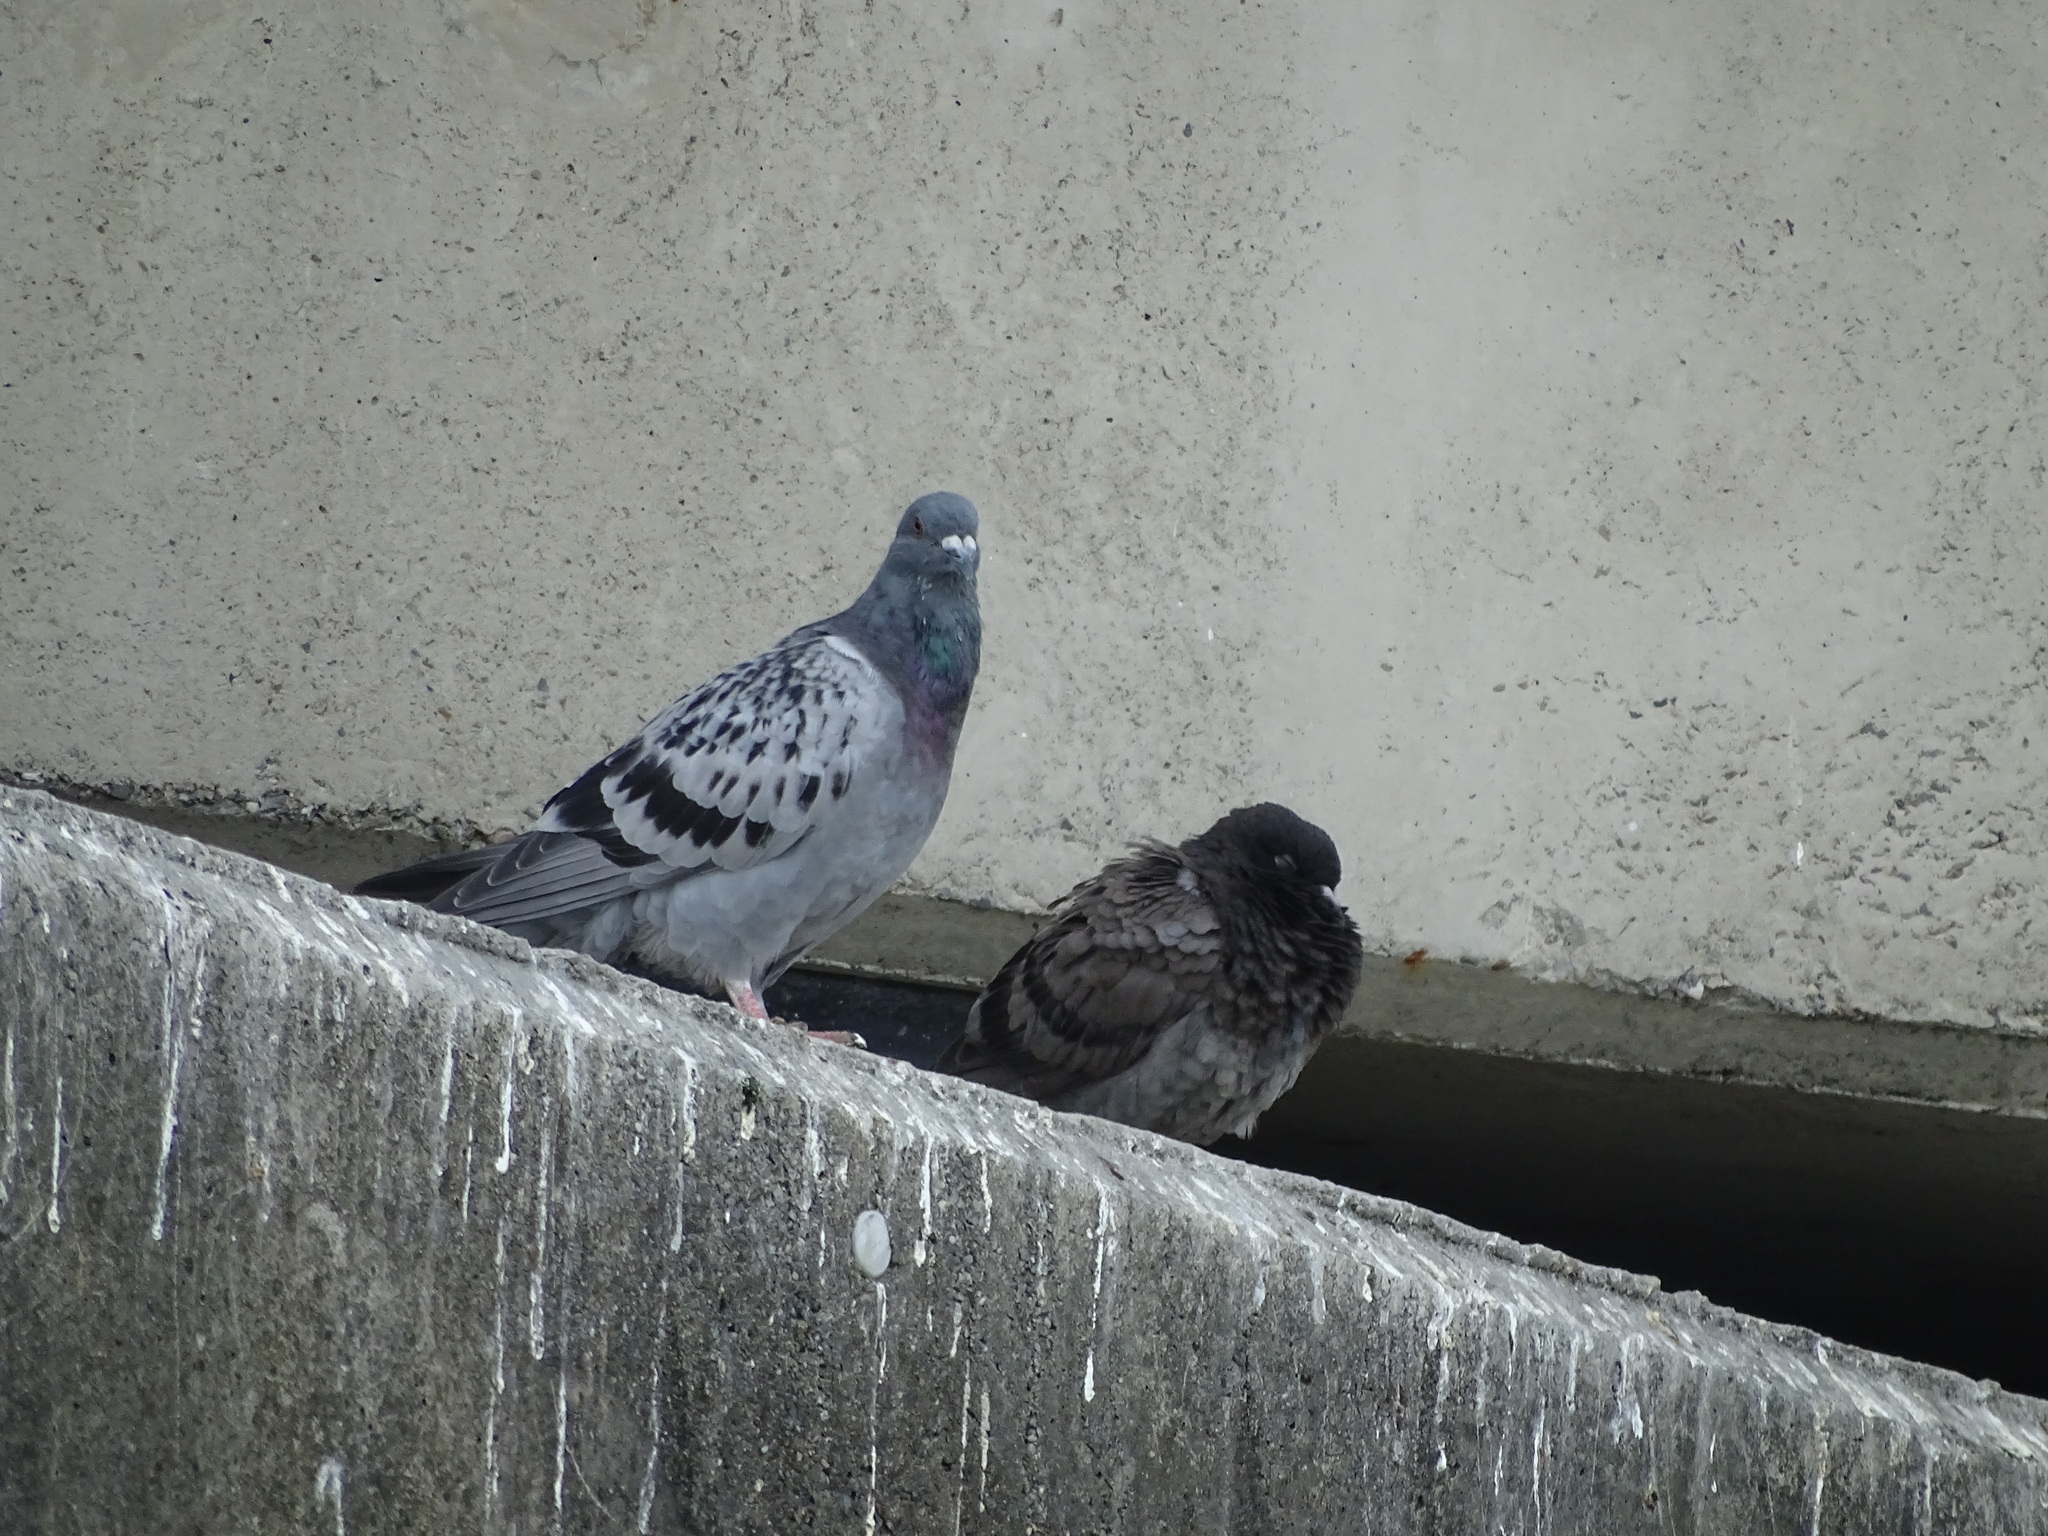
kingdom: Animalia
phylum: Chordata
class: Aves
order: Columbiformes
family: Columbidae
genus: Columba
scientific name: Columba livia
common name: Rock pigeon
